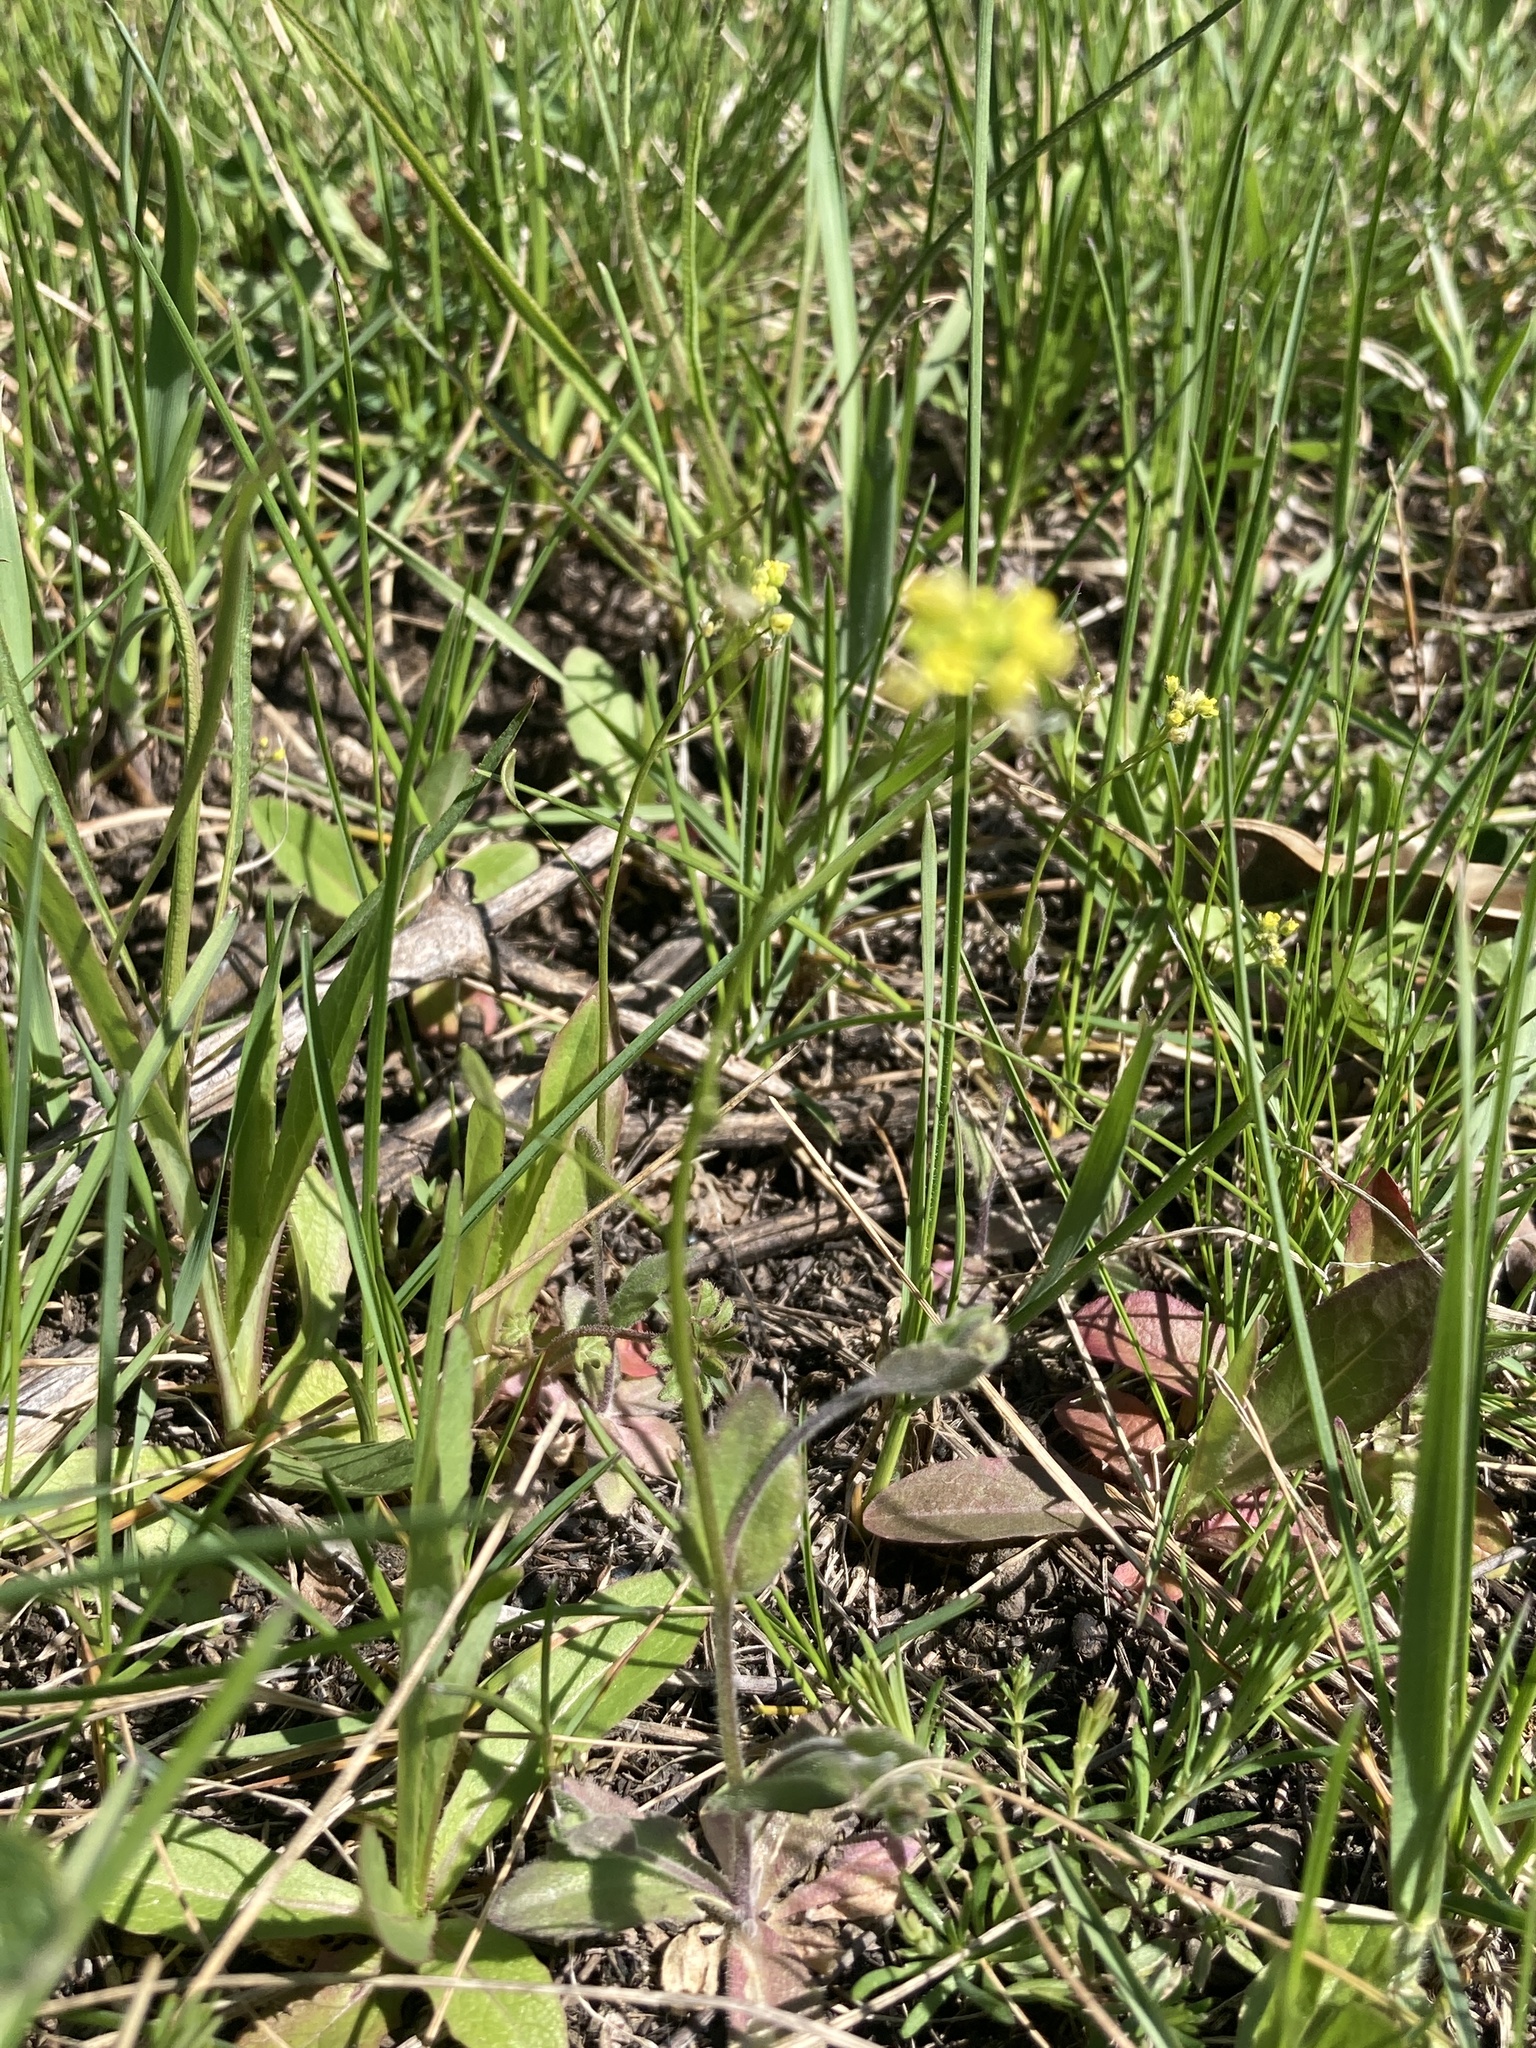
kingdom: Plantae
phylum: Tracheophyta
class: Magnoliopsida
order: Brassicales
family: Brassicaceae
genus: Draba
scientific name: Draba nemorosa
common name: Wood whitlow-grass
